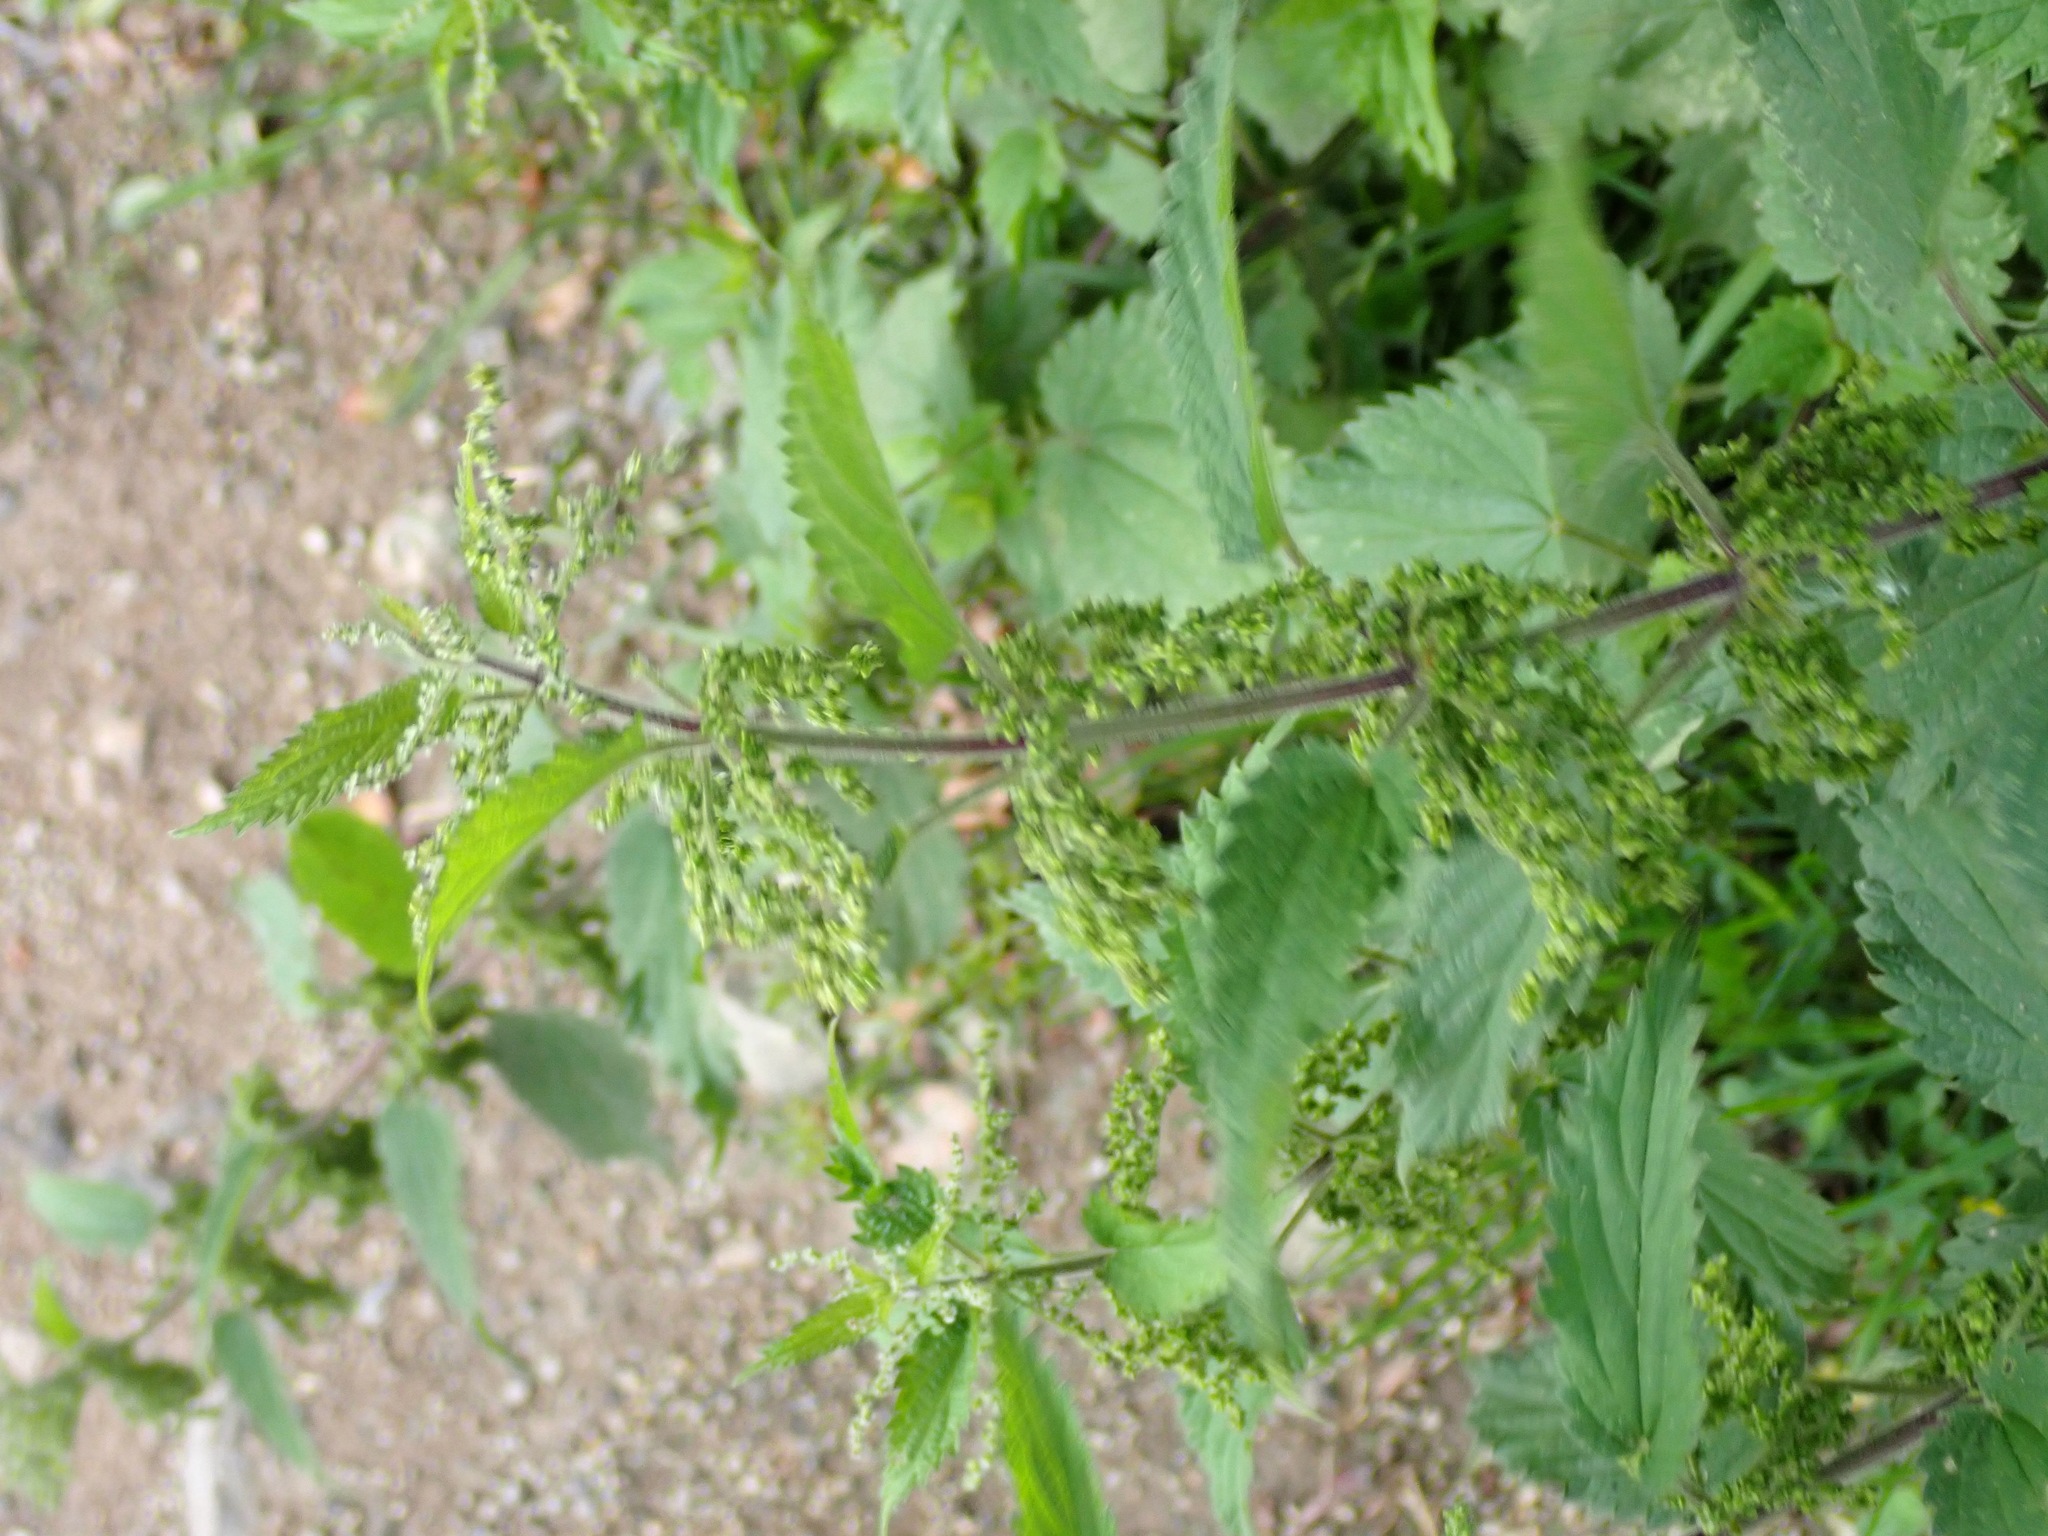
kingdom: Plantae
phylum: Tracheophyta
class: Magnoliopsida
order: Rosales
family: Urticaceae
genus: Urtica
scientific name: Urtica dioica
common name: Common nettle
